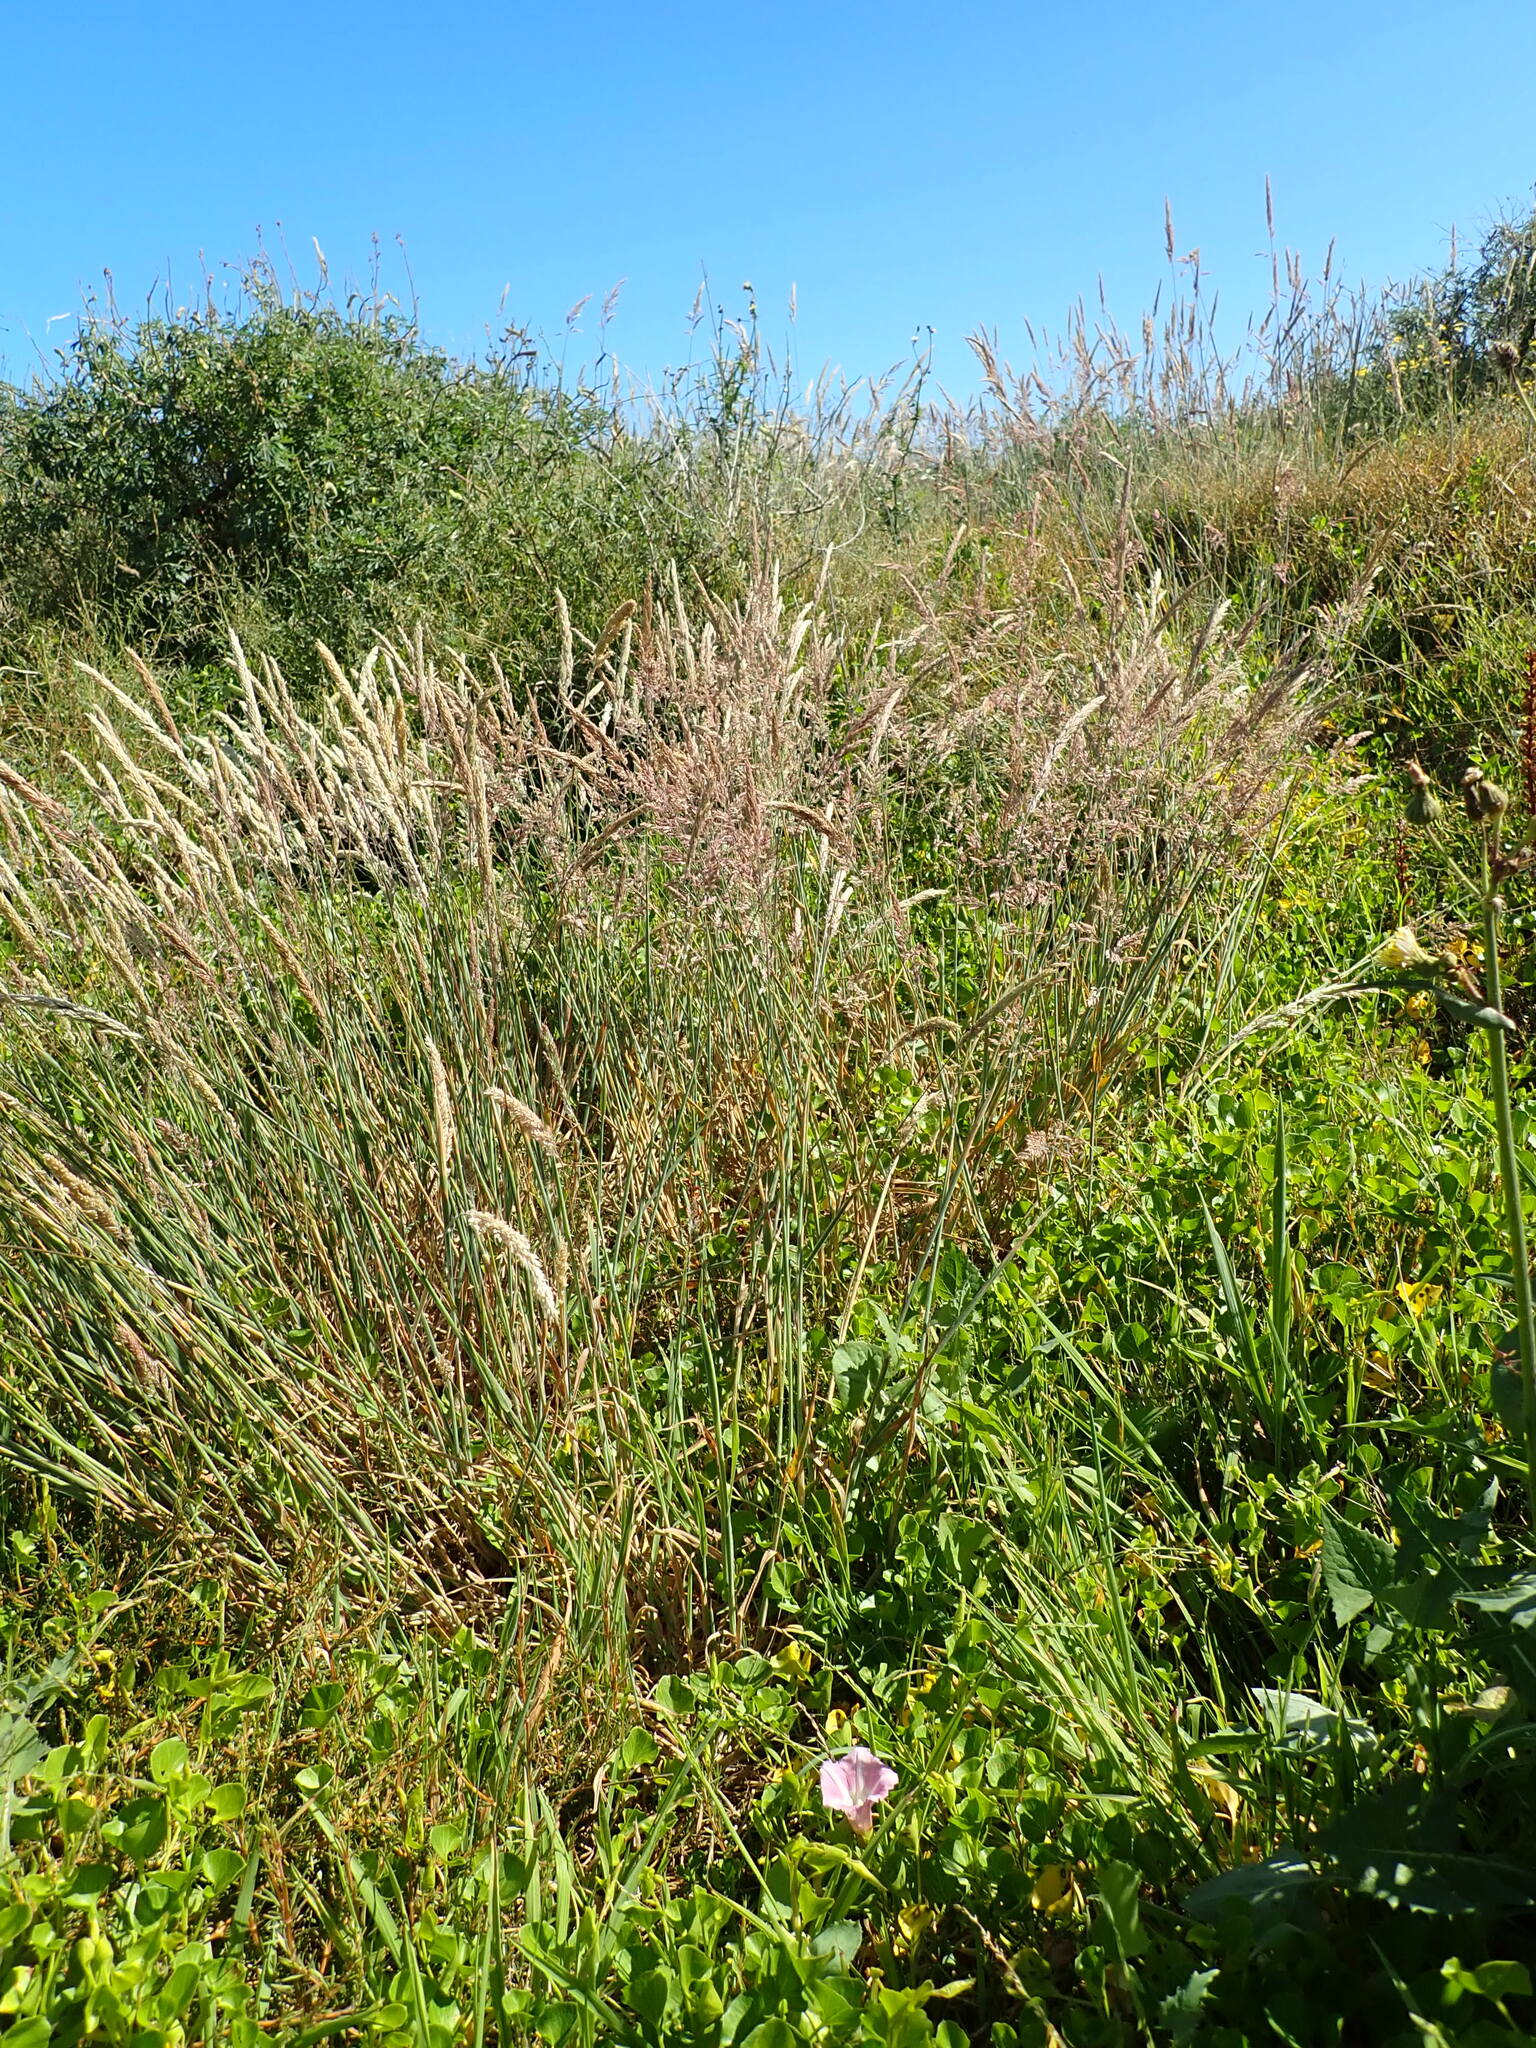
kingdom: Plantae
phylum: Tracheophyta
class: Liliopsida
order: Poales
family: Poaceae
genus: Holcus
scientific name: Holcus lanatus
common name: Yorkshire-fog
